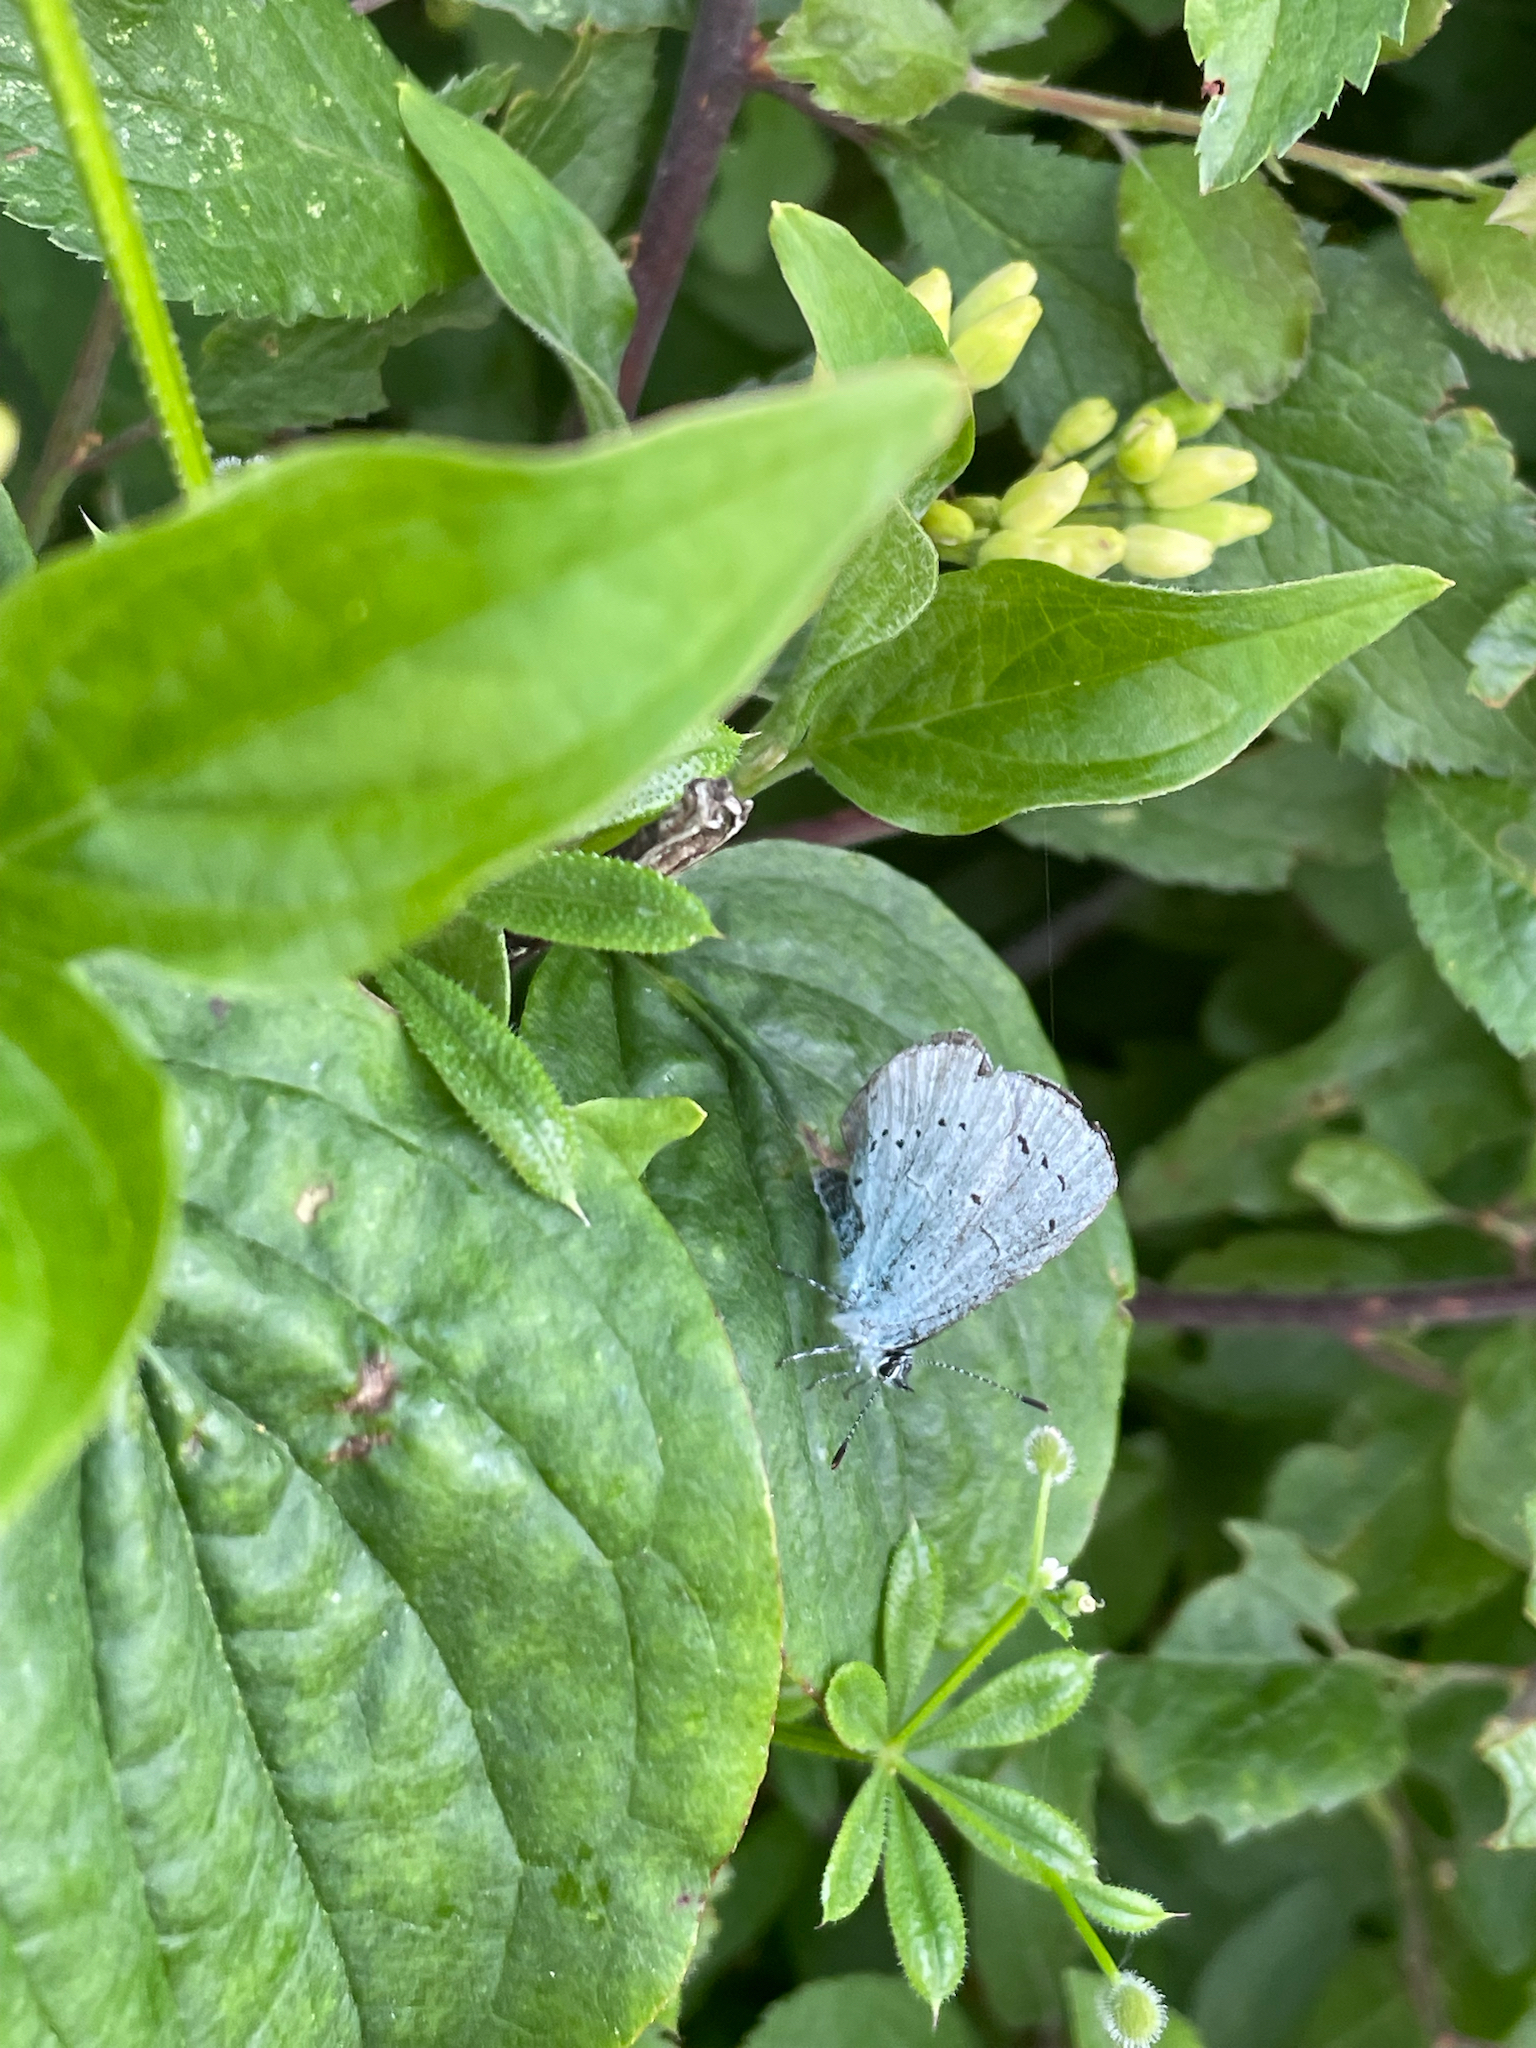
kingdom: Animalia
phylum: Arthropoda
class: Insecta
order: Lepidoptera
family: Lycaenidae
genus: Celastrina
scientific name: Celastrina argiolus
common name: Holly blue
